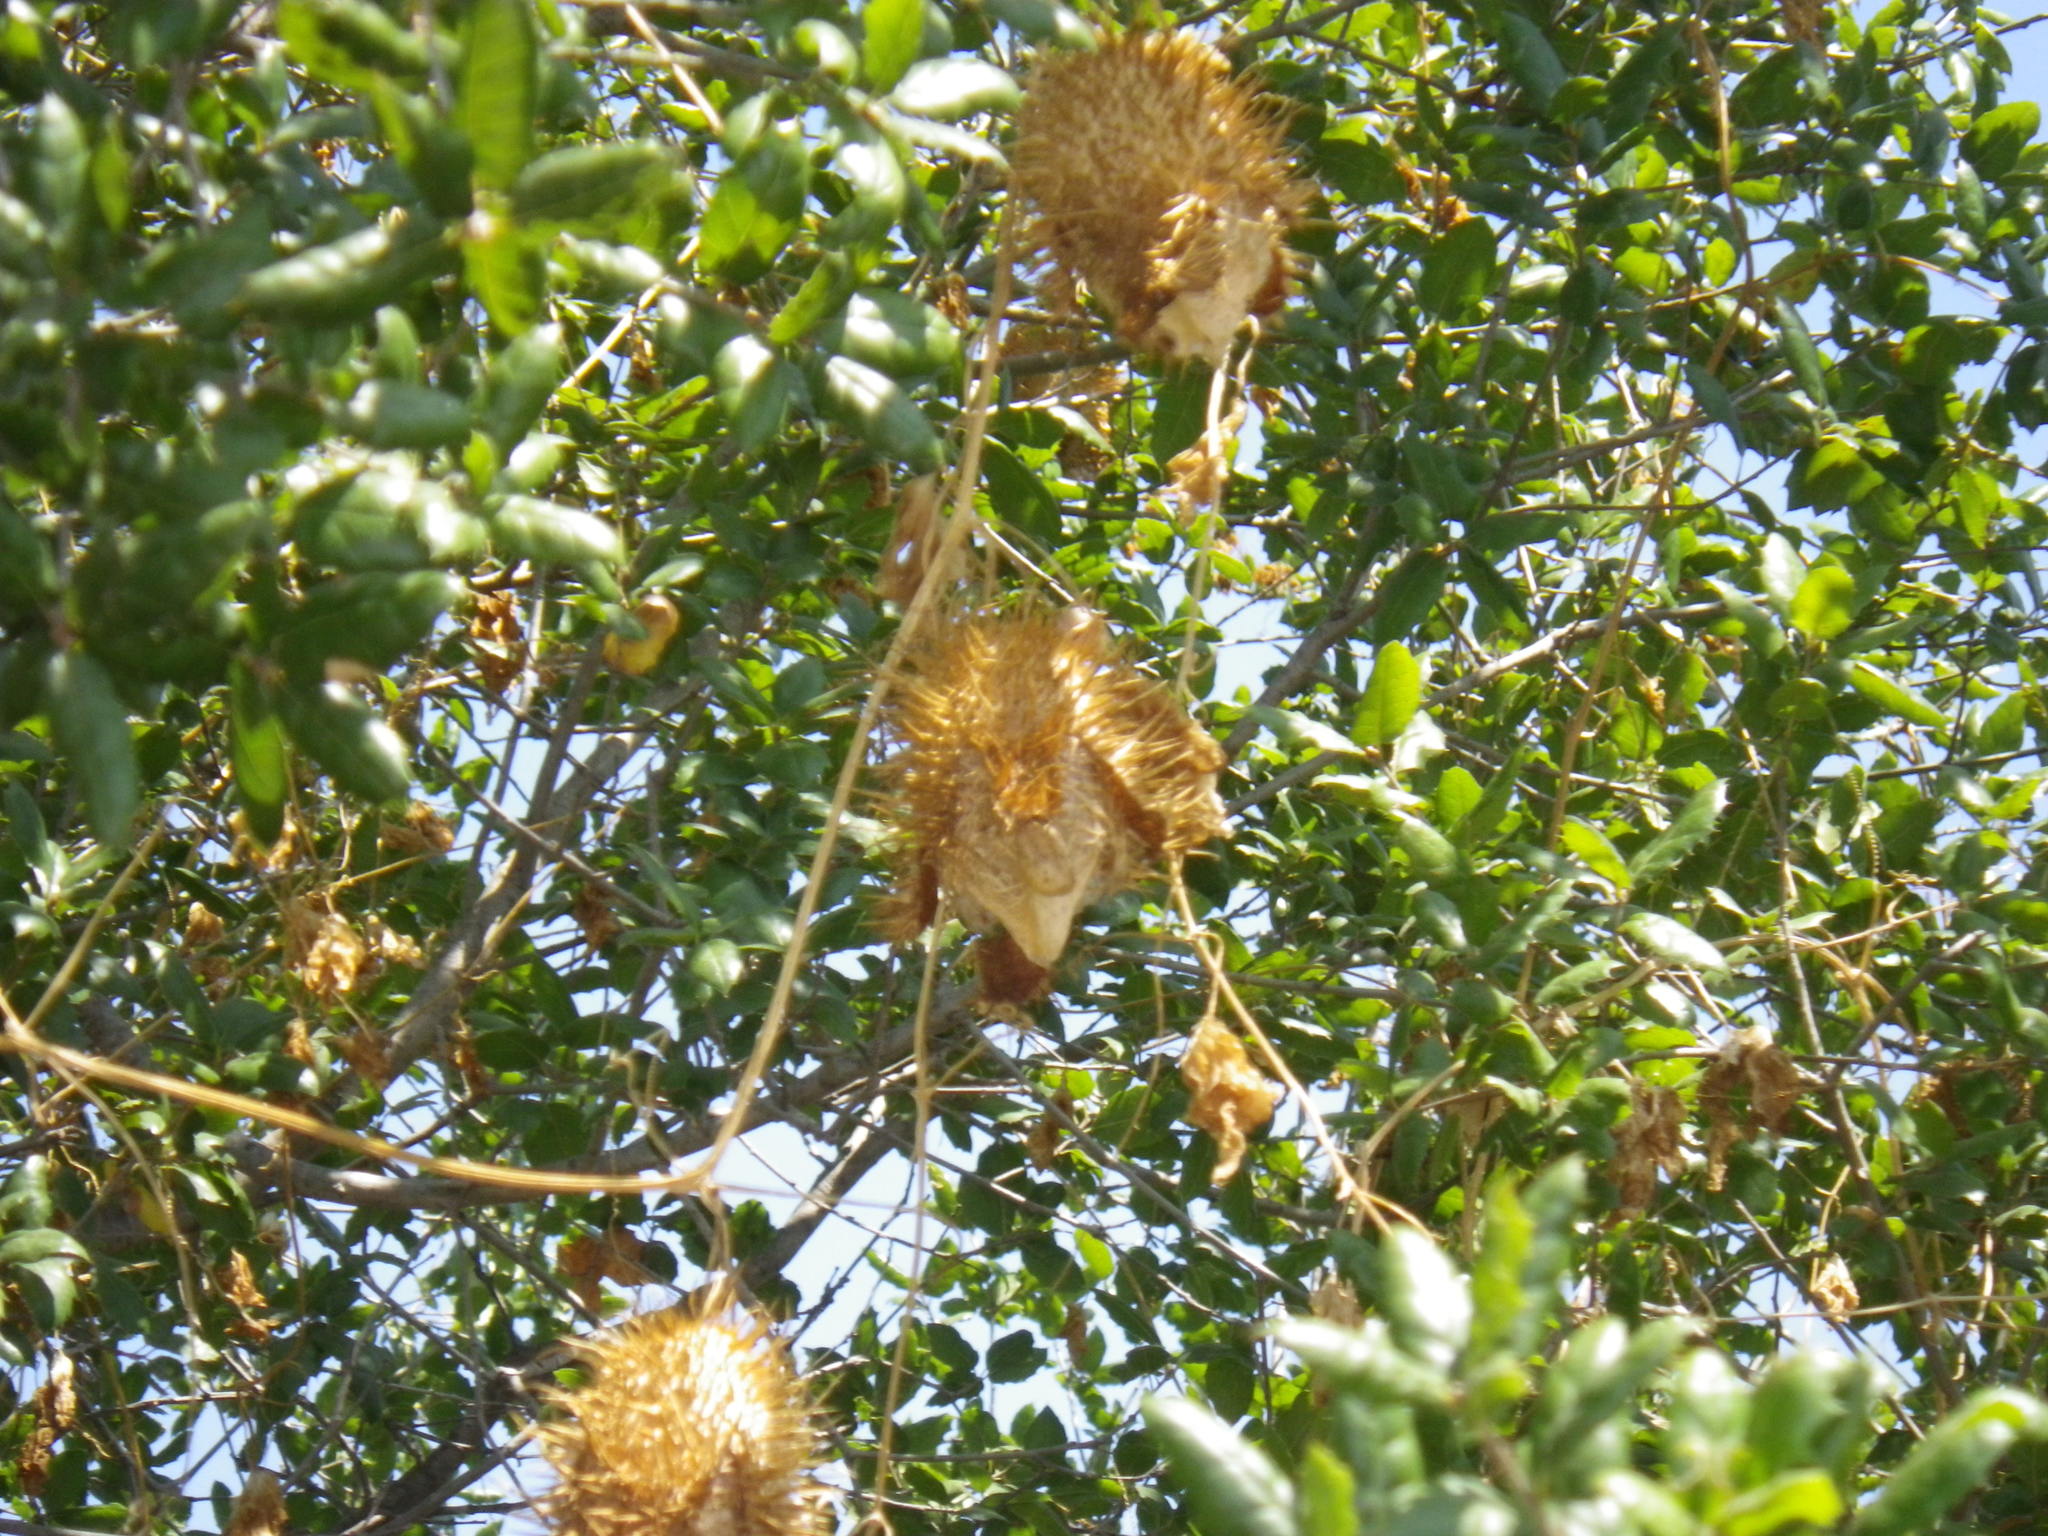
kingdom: Plantae
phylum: Tracheophyta
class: Magnoliopsida
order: Fagales
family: Fagaceae
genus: Quercus
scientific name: Quercus agrifolia
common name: California live oak
